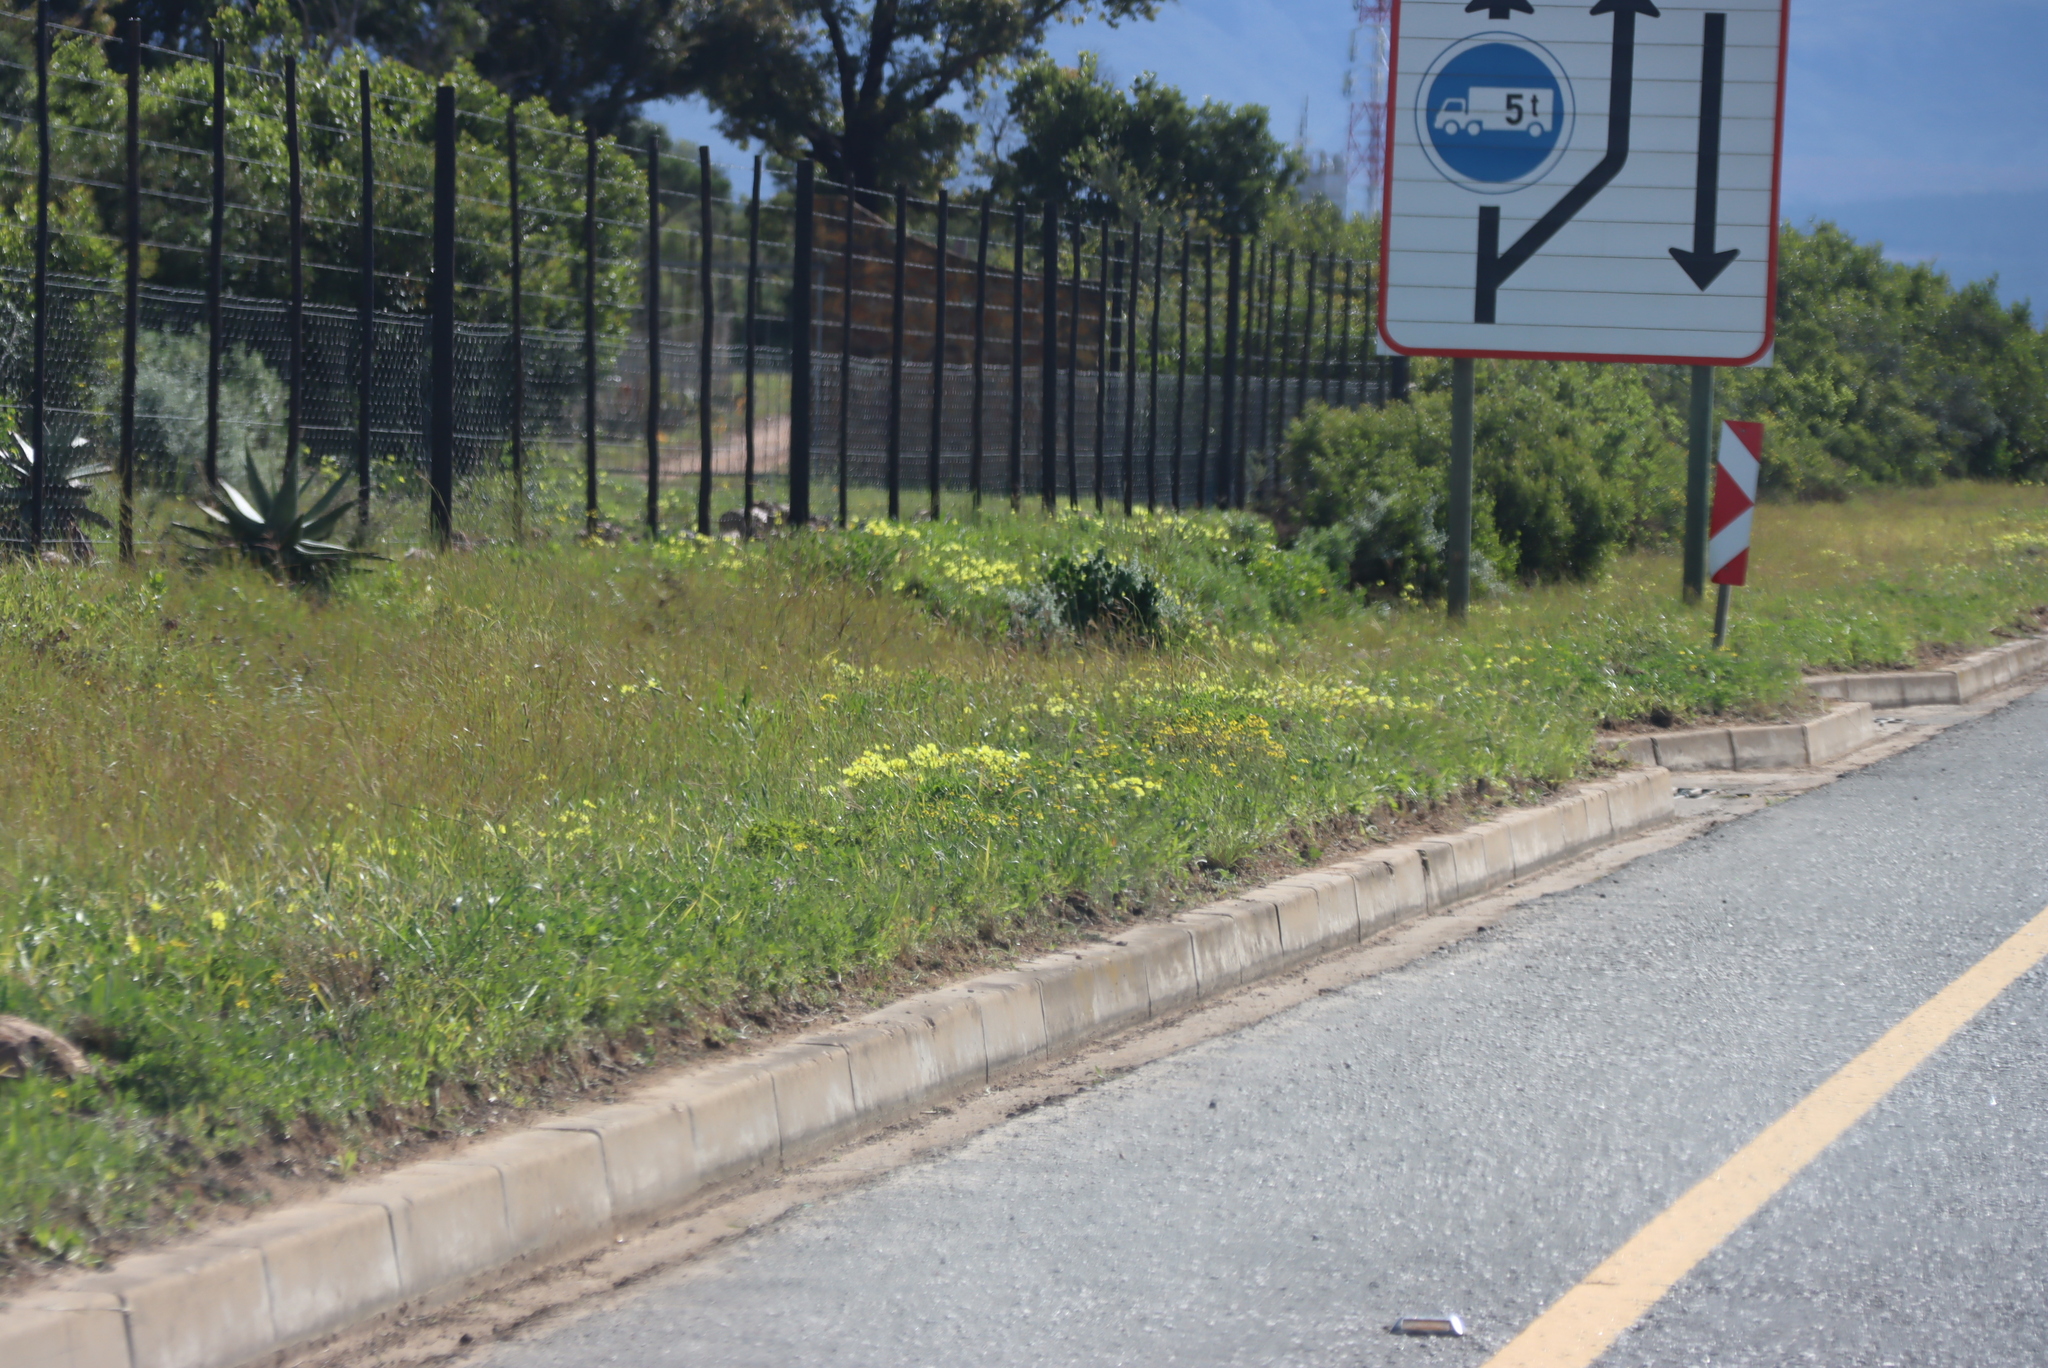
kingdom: Plantae
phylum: Tracheophyta
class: Magnoliopsida
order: Oxalidales
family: Oxalidaceae
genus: Oxalis
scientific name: Oxalis pes-caprae
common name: Bermuda-buttercup
